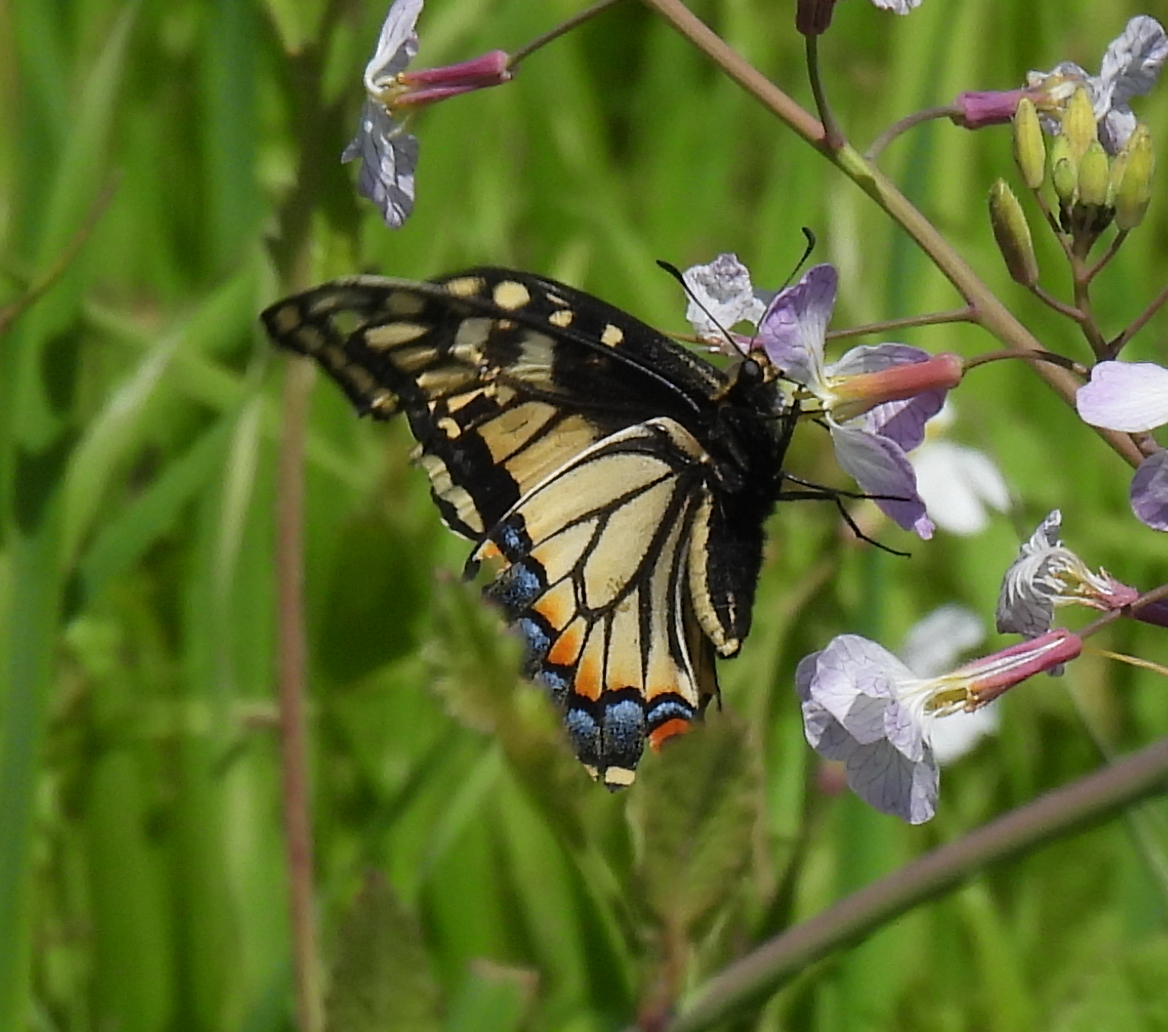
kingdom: Animalia
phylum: Arthropoda
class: Insecta
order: Lepidoptera
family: Papilionidae
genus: Papilio
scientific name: Papilio zelicaon
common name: Anise swallowtail
